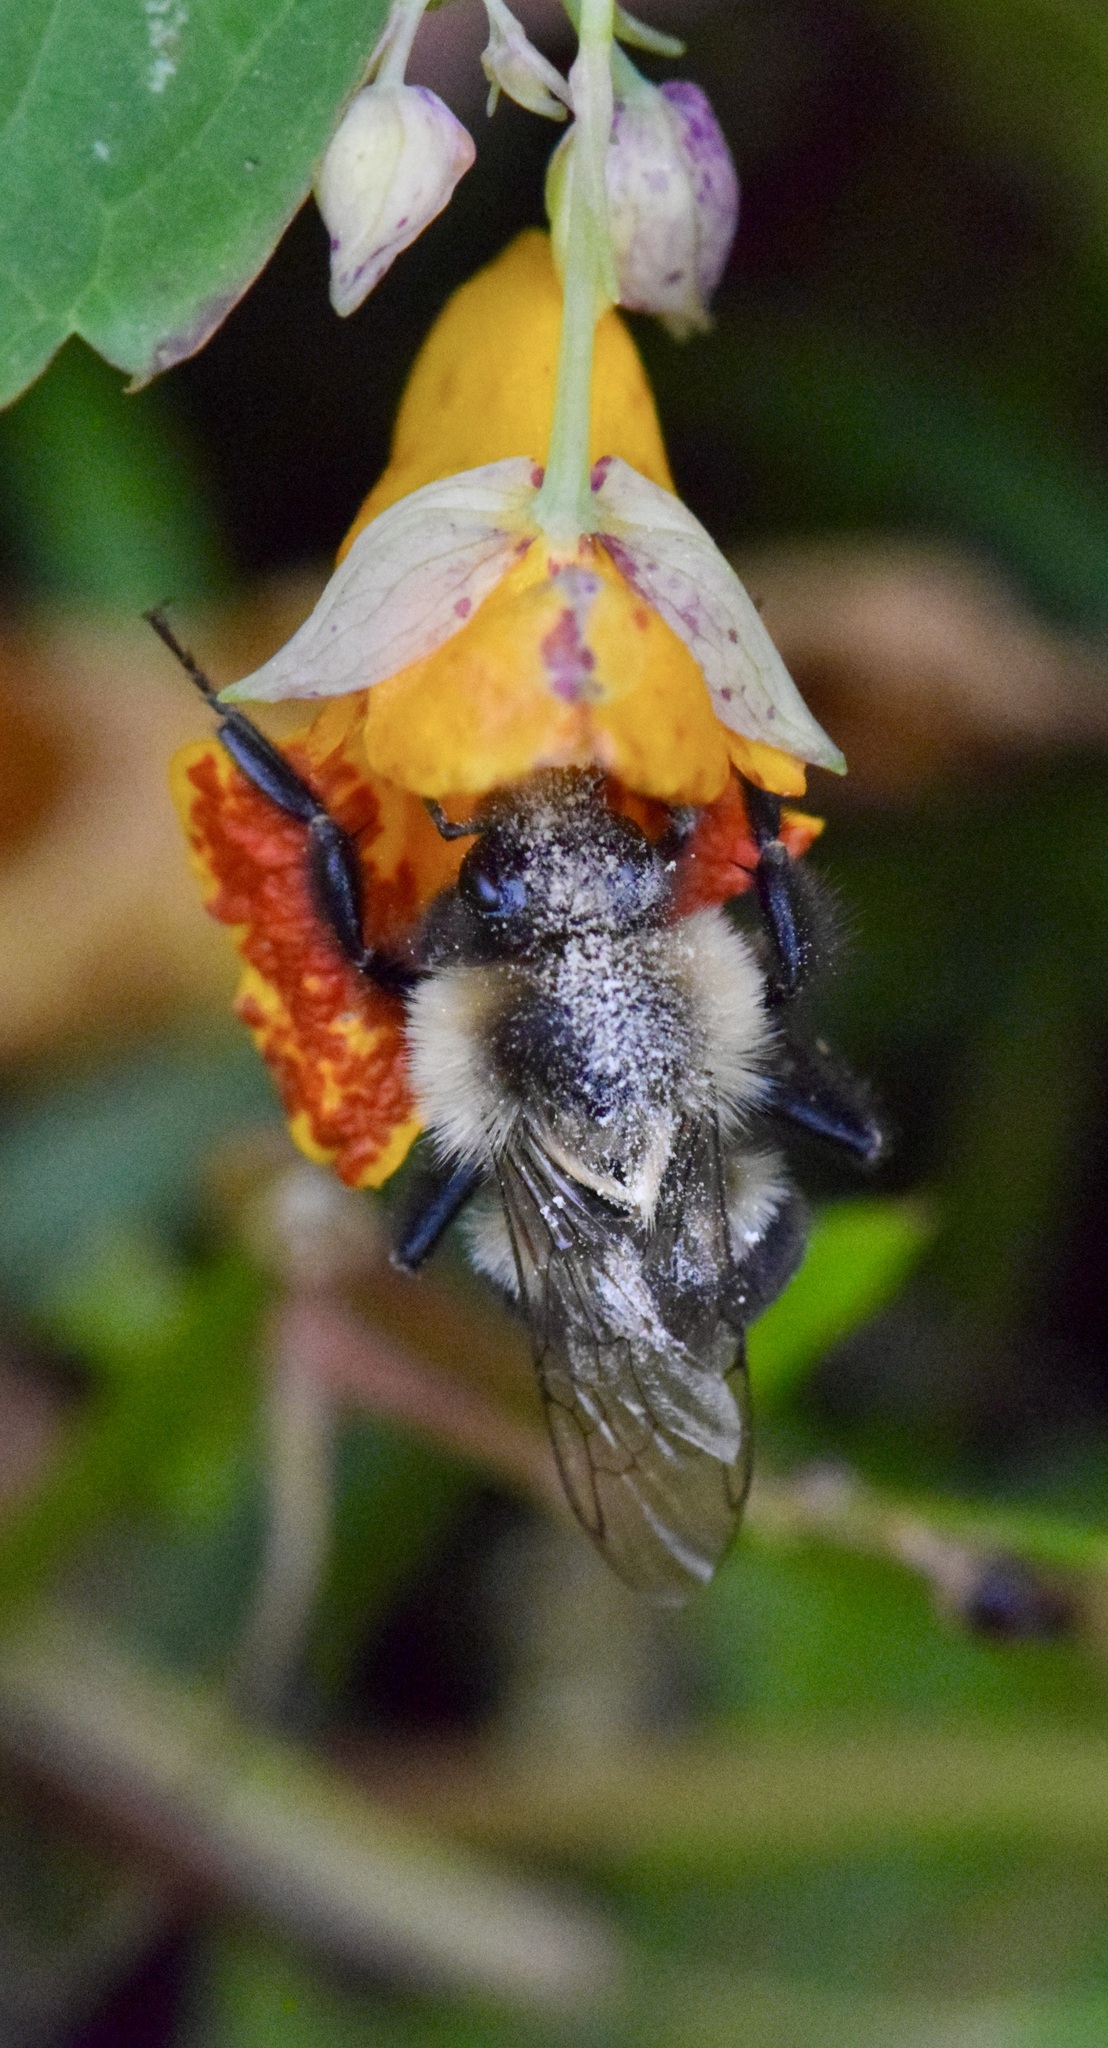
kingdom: Animalia
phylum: Arthropoda
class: Insecta
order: Hymenoptera
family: Apidae
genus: Bombus
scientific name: Bombus impatiens
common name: Common eastern bumble bee
